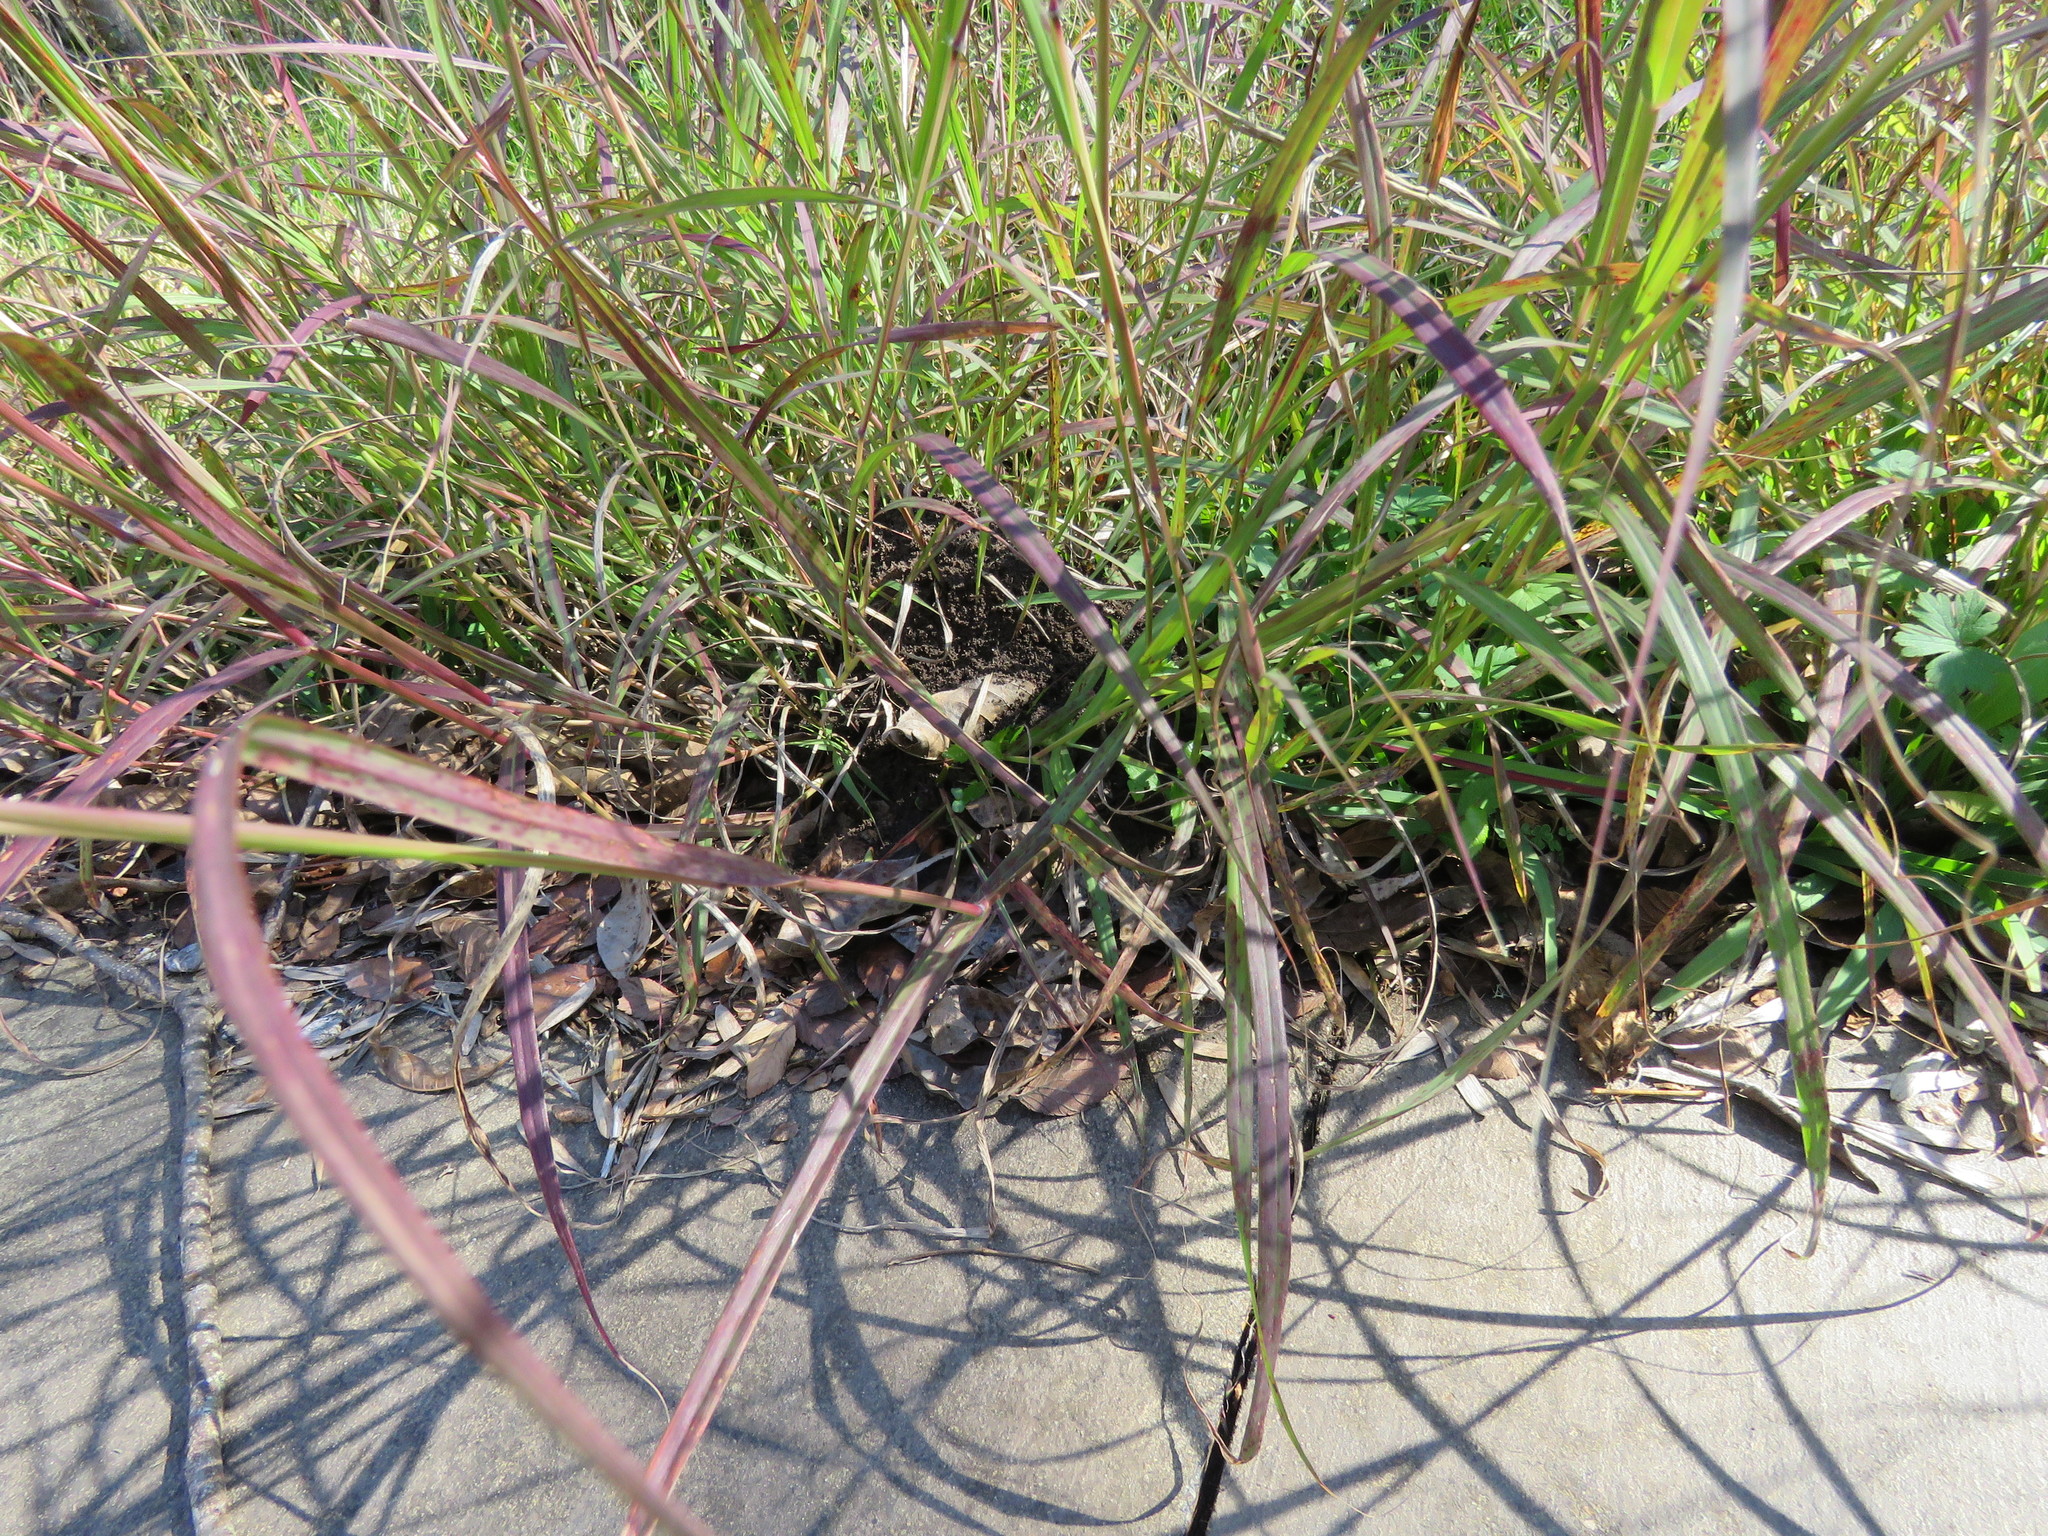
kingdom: Plantae
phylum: Tracheophyta
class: Liliopsida
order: Poales
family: Poaceae
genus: Bothriochloa
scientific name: Bothriochloa ischaemum
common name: Yellow bluestem
